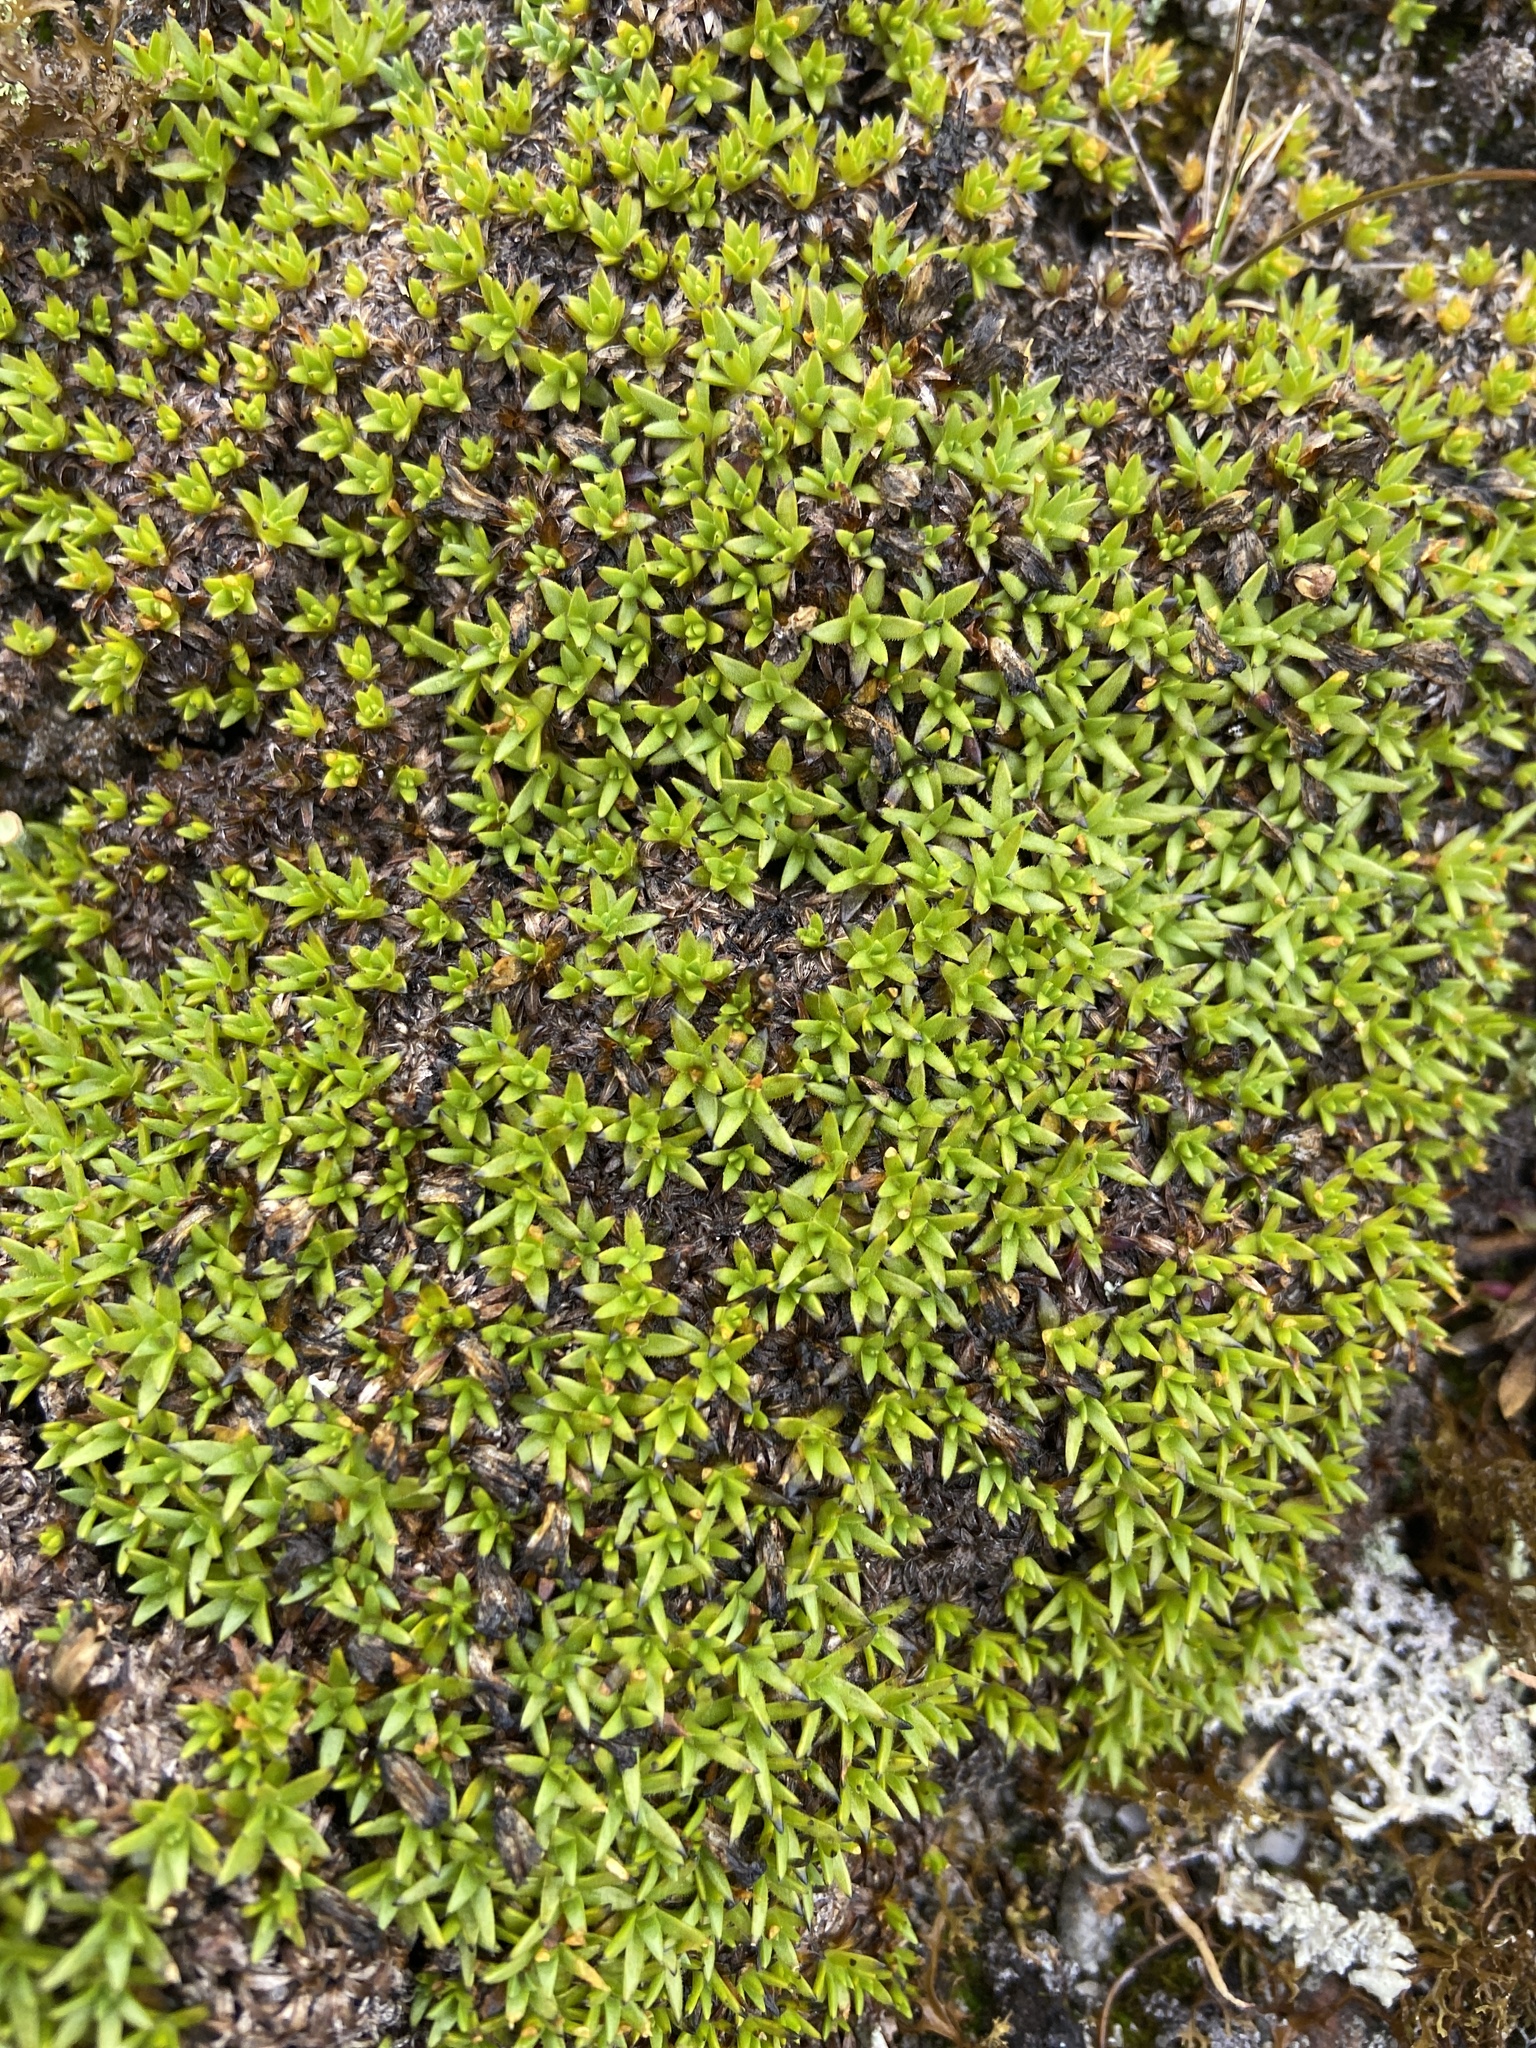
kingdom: Plantae
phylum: Tracheophyta
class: Magnoliopsida
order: Caryophyllales
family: Caryophyllaceae
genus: Silene
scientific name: Silene acaulis
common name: Moss campion
